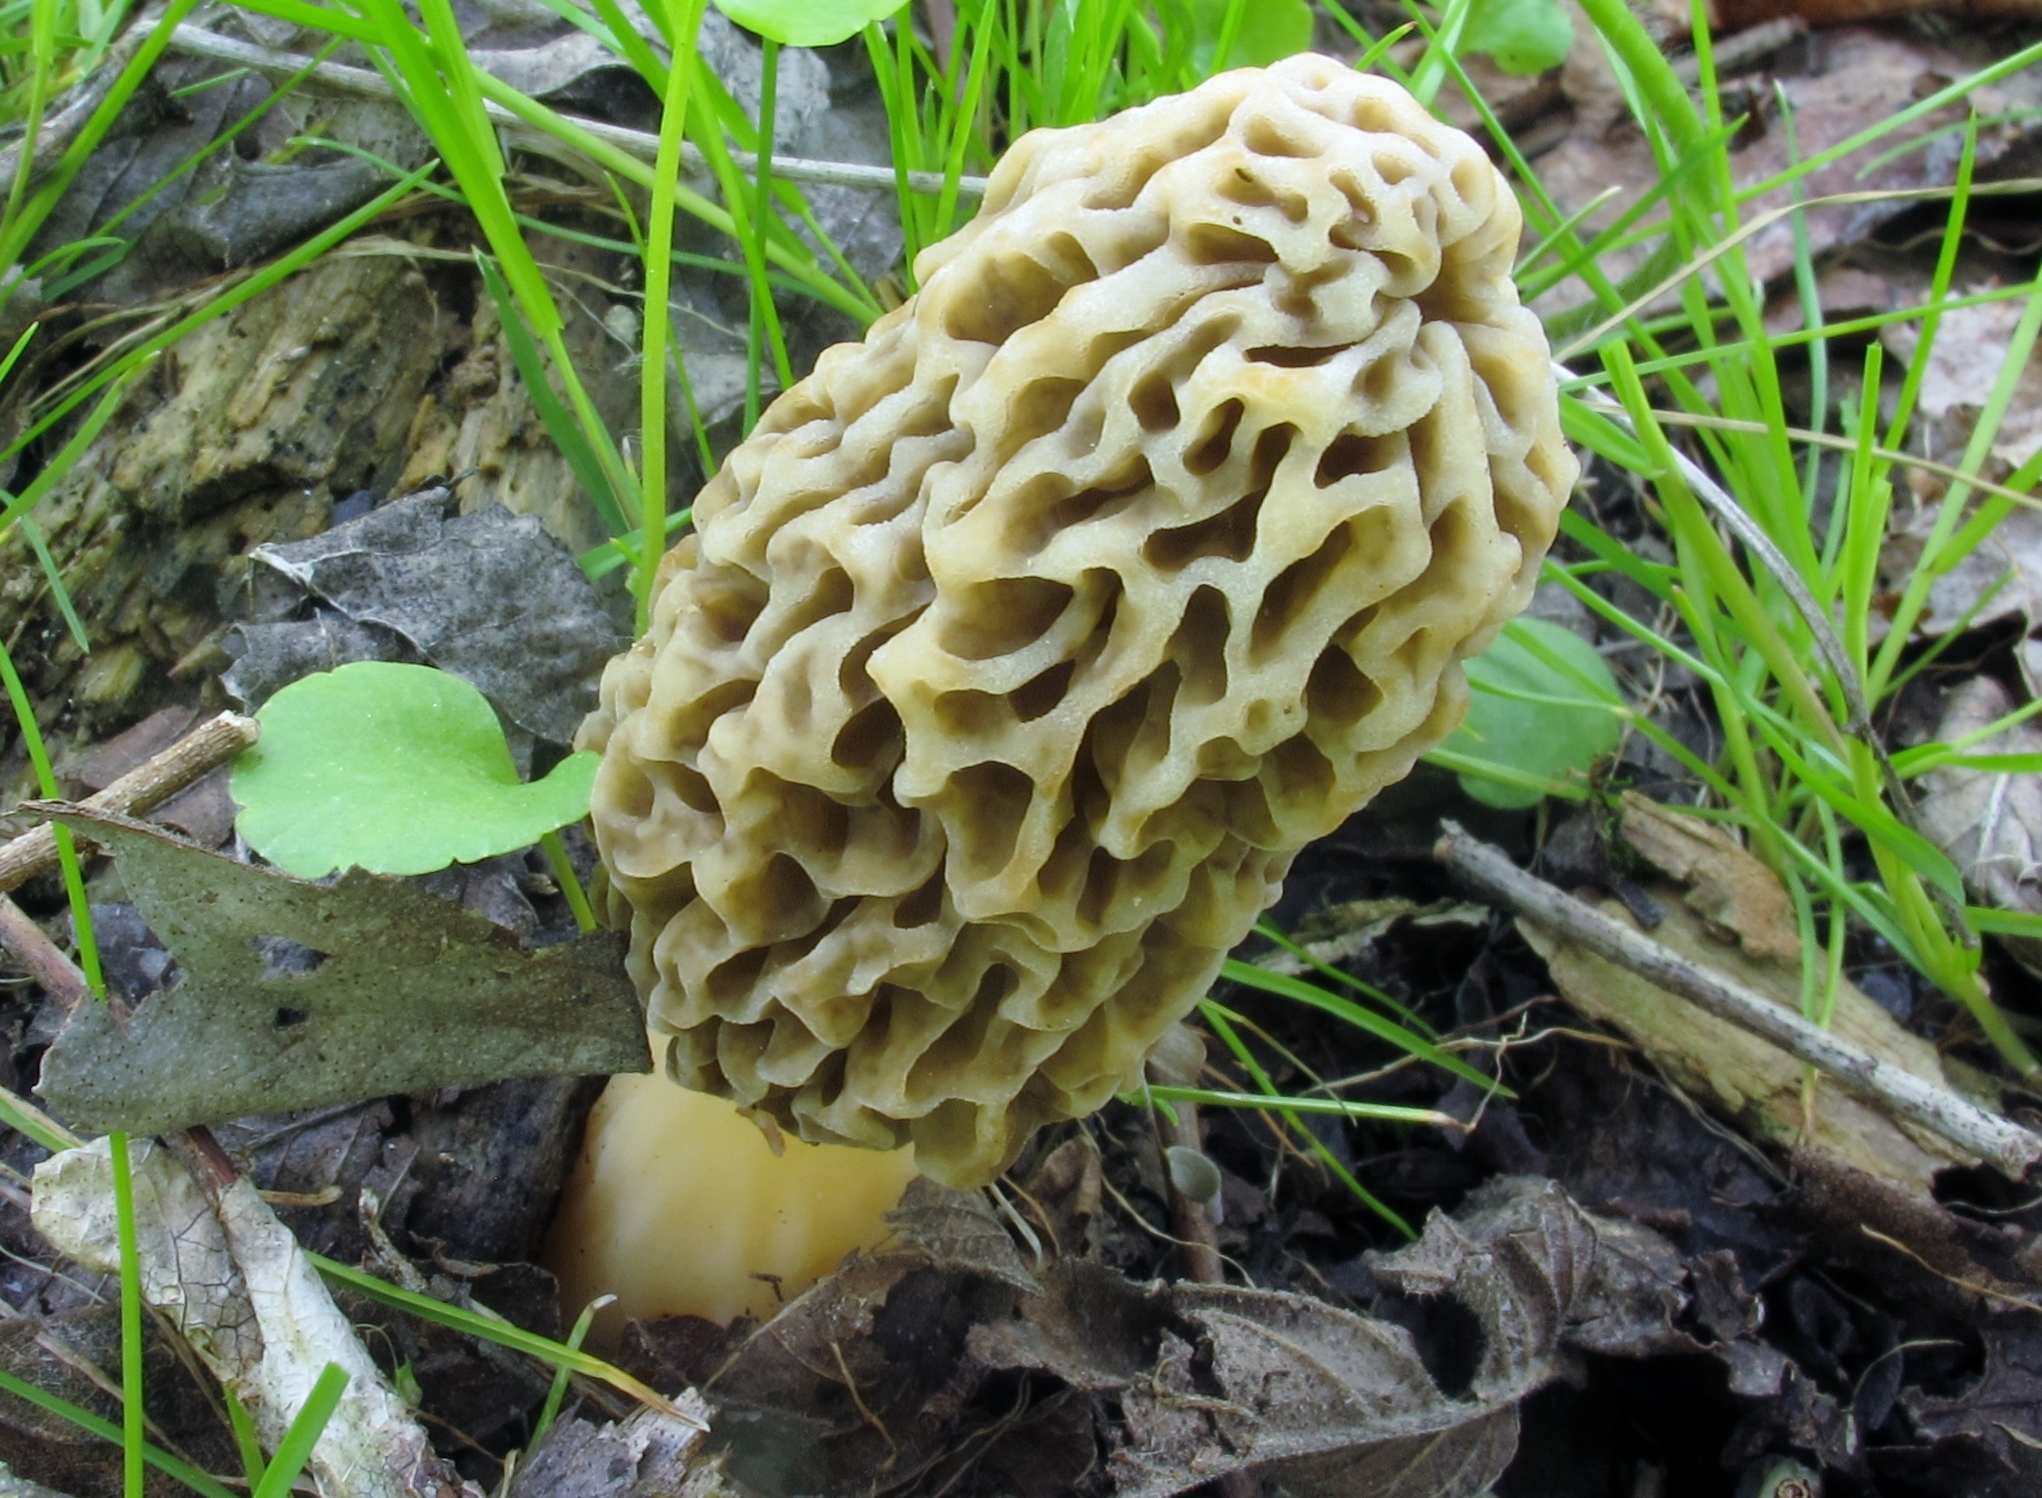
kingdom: Fungi
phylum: Ascomycota
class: Pezizomycetes
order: Pezizales
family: Morchellaceae
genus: Morchella
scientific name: Morchella americana
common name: White morel
